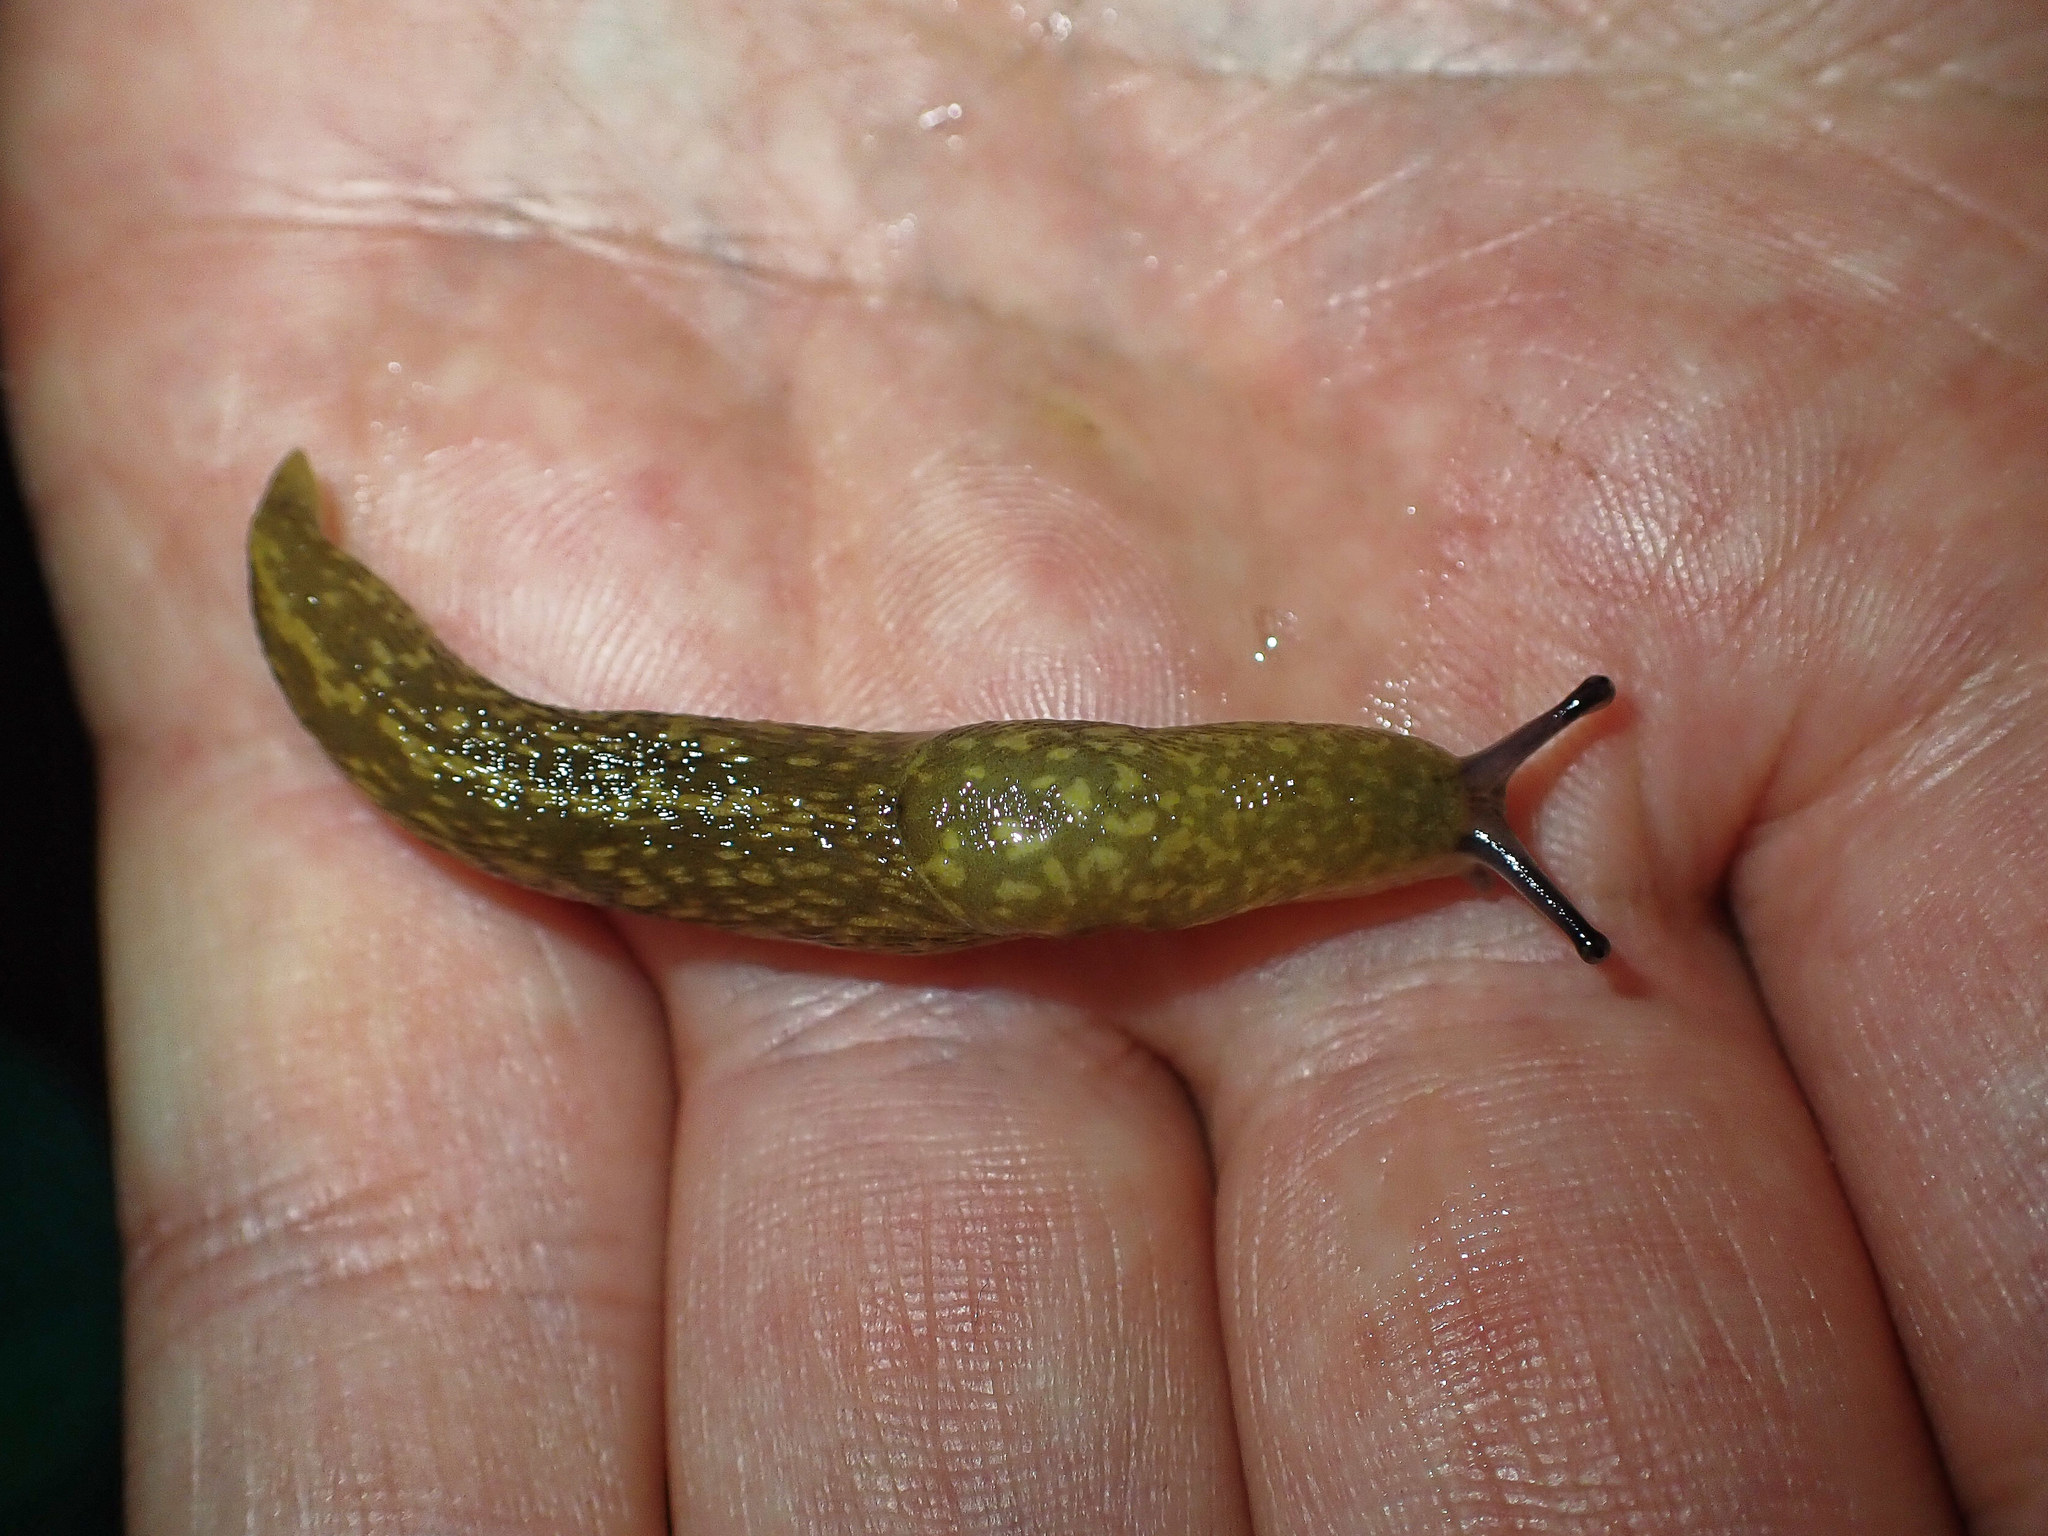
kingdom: Animalia
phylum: Mollusca
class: Gastropoda
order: Stylommatophora
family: Limacidae
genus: Limacus
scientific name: Limacus flavus
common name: Yellow gardenslug
